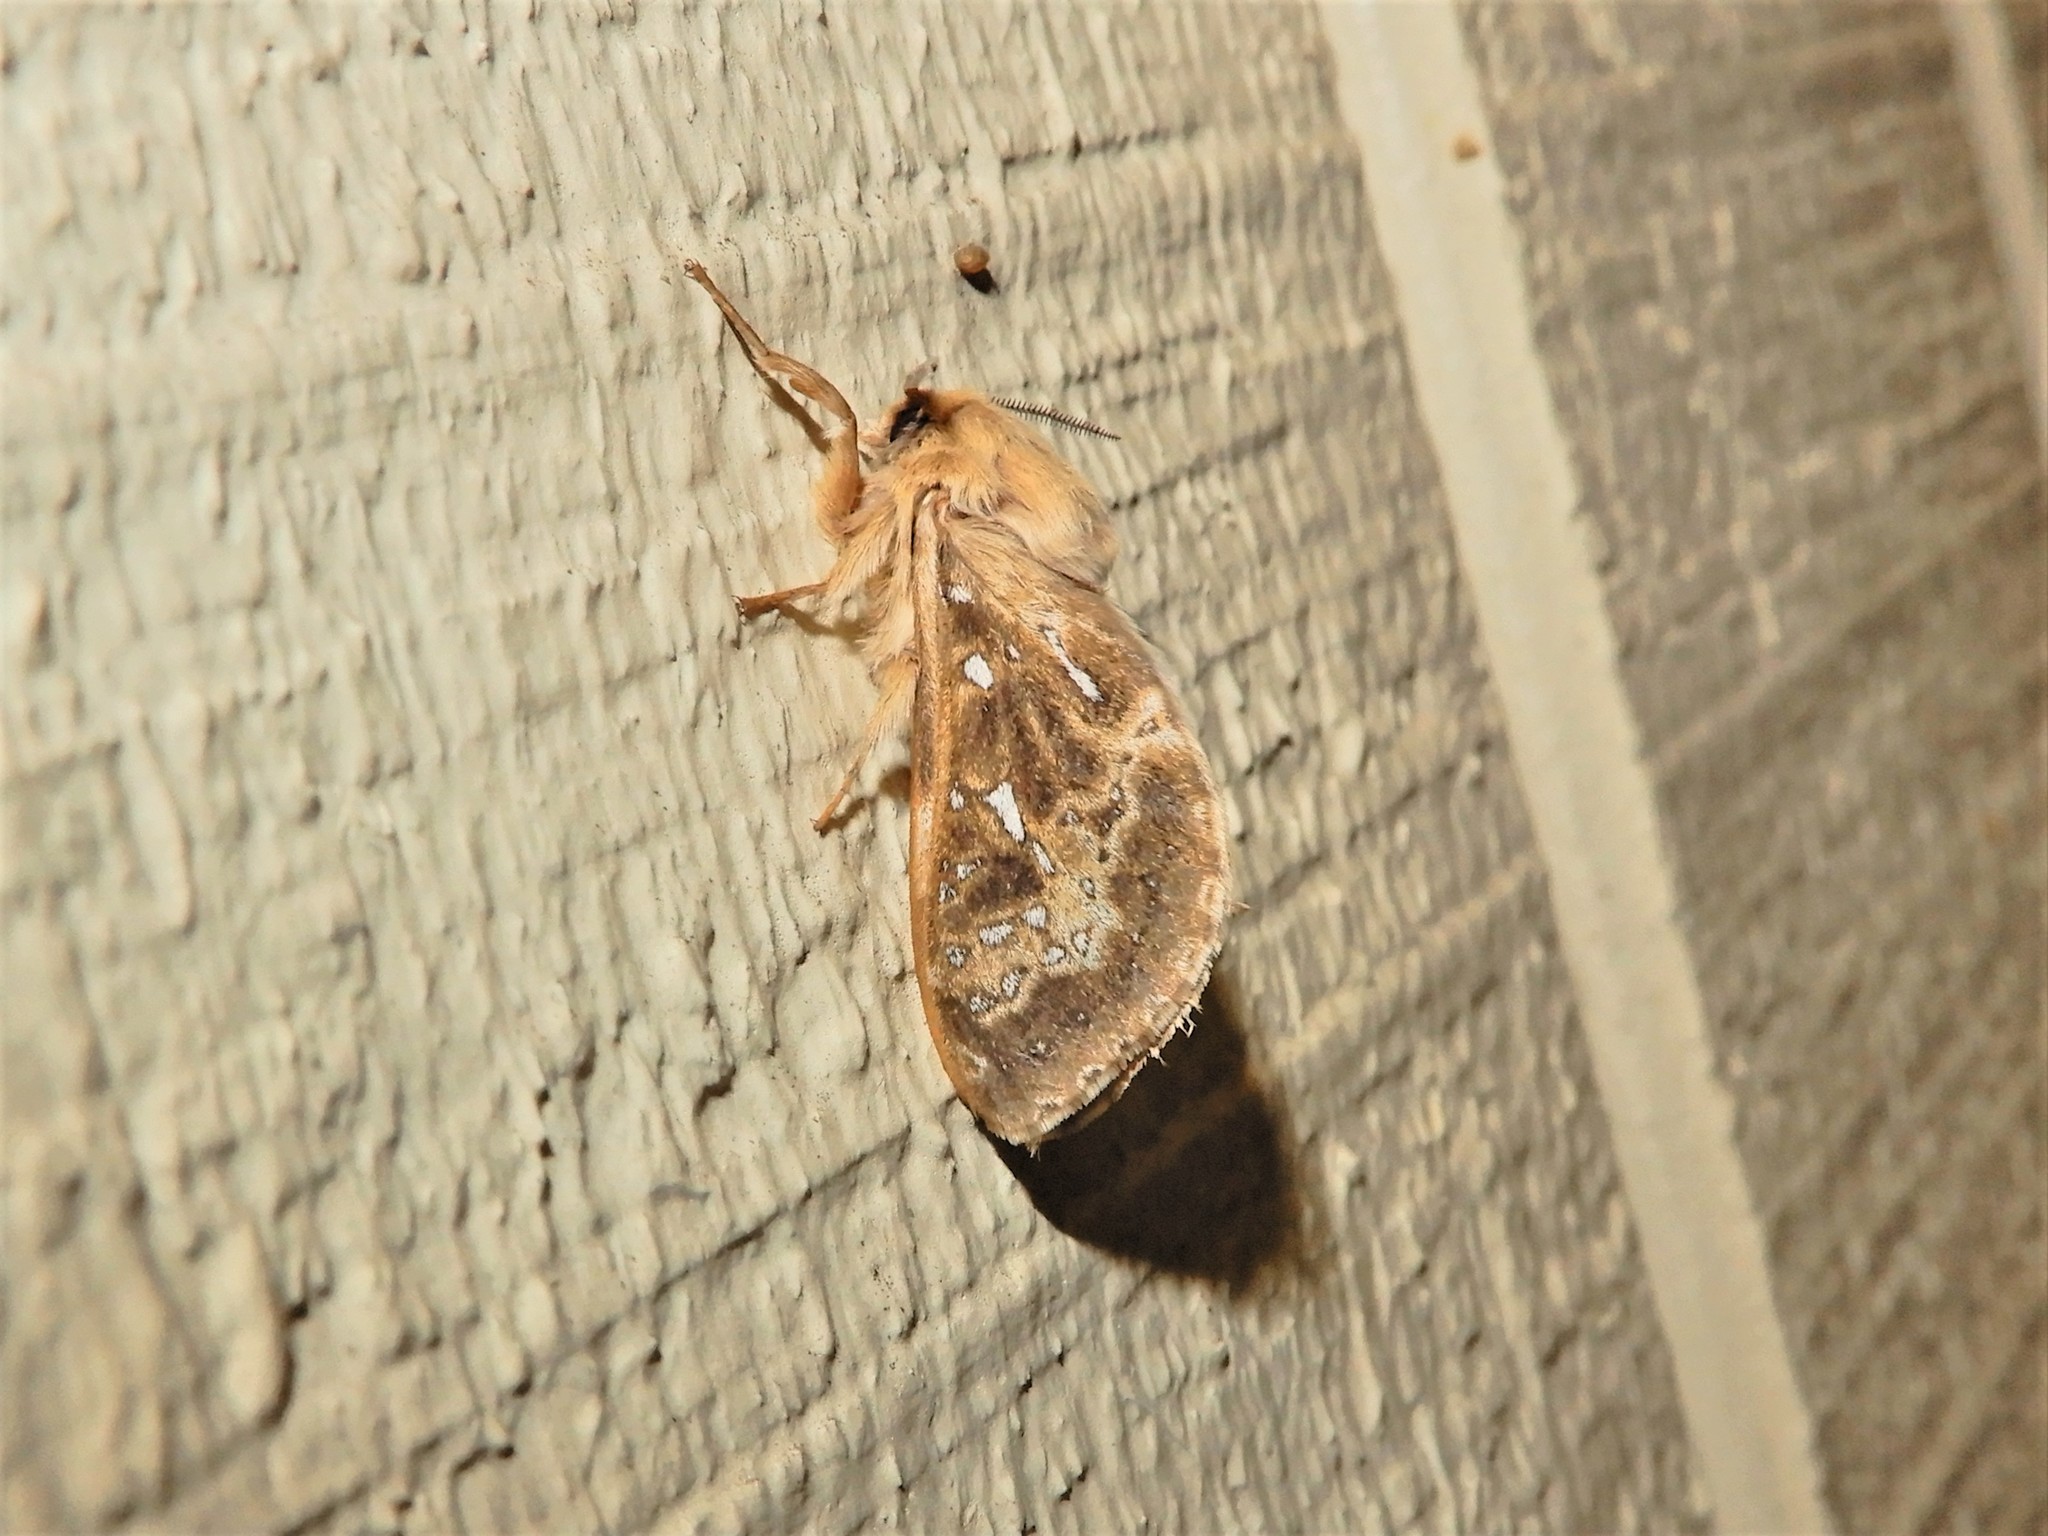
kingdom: Animalia
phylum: Arthropoda
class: Insecta
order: Lepidoptera
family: Hepialidae
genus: Wiseana
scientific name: Wiseana cervinata
